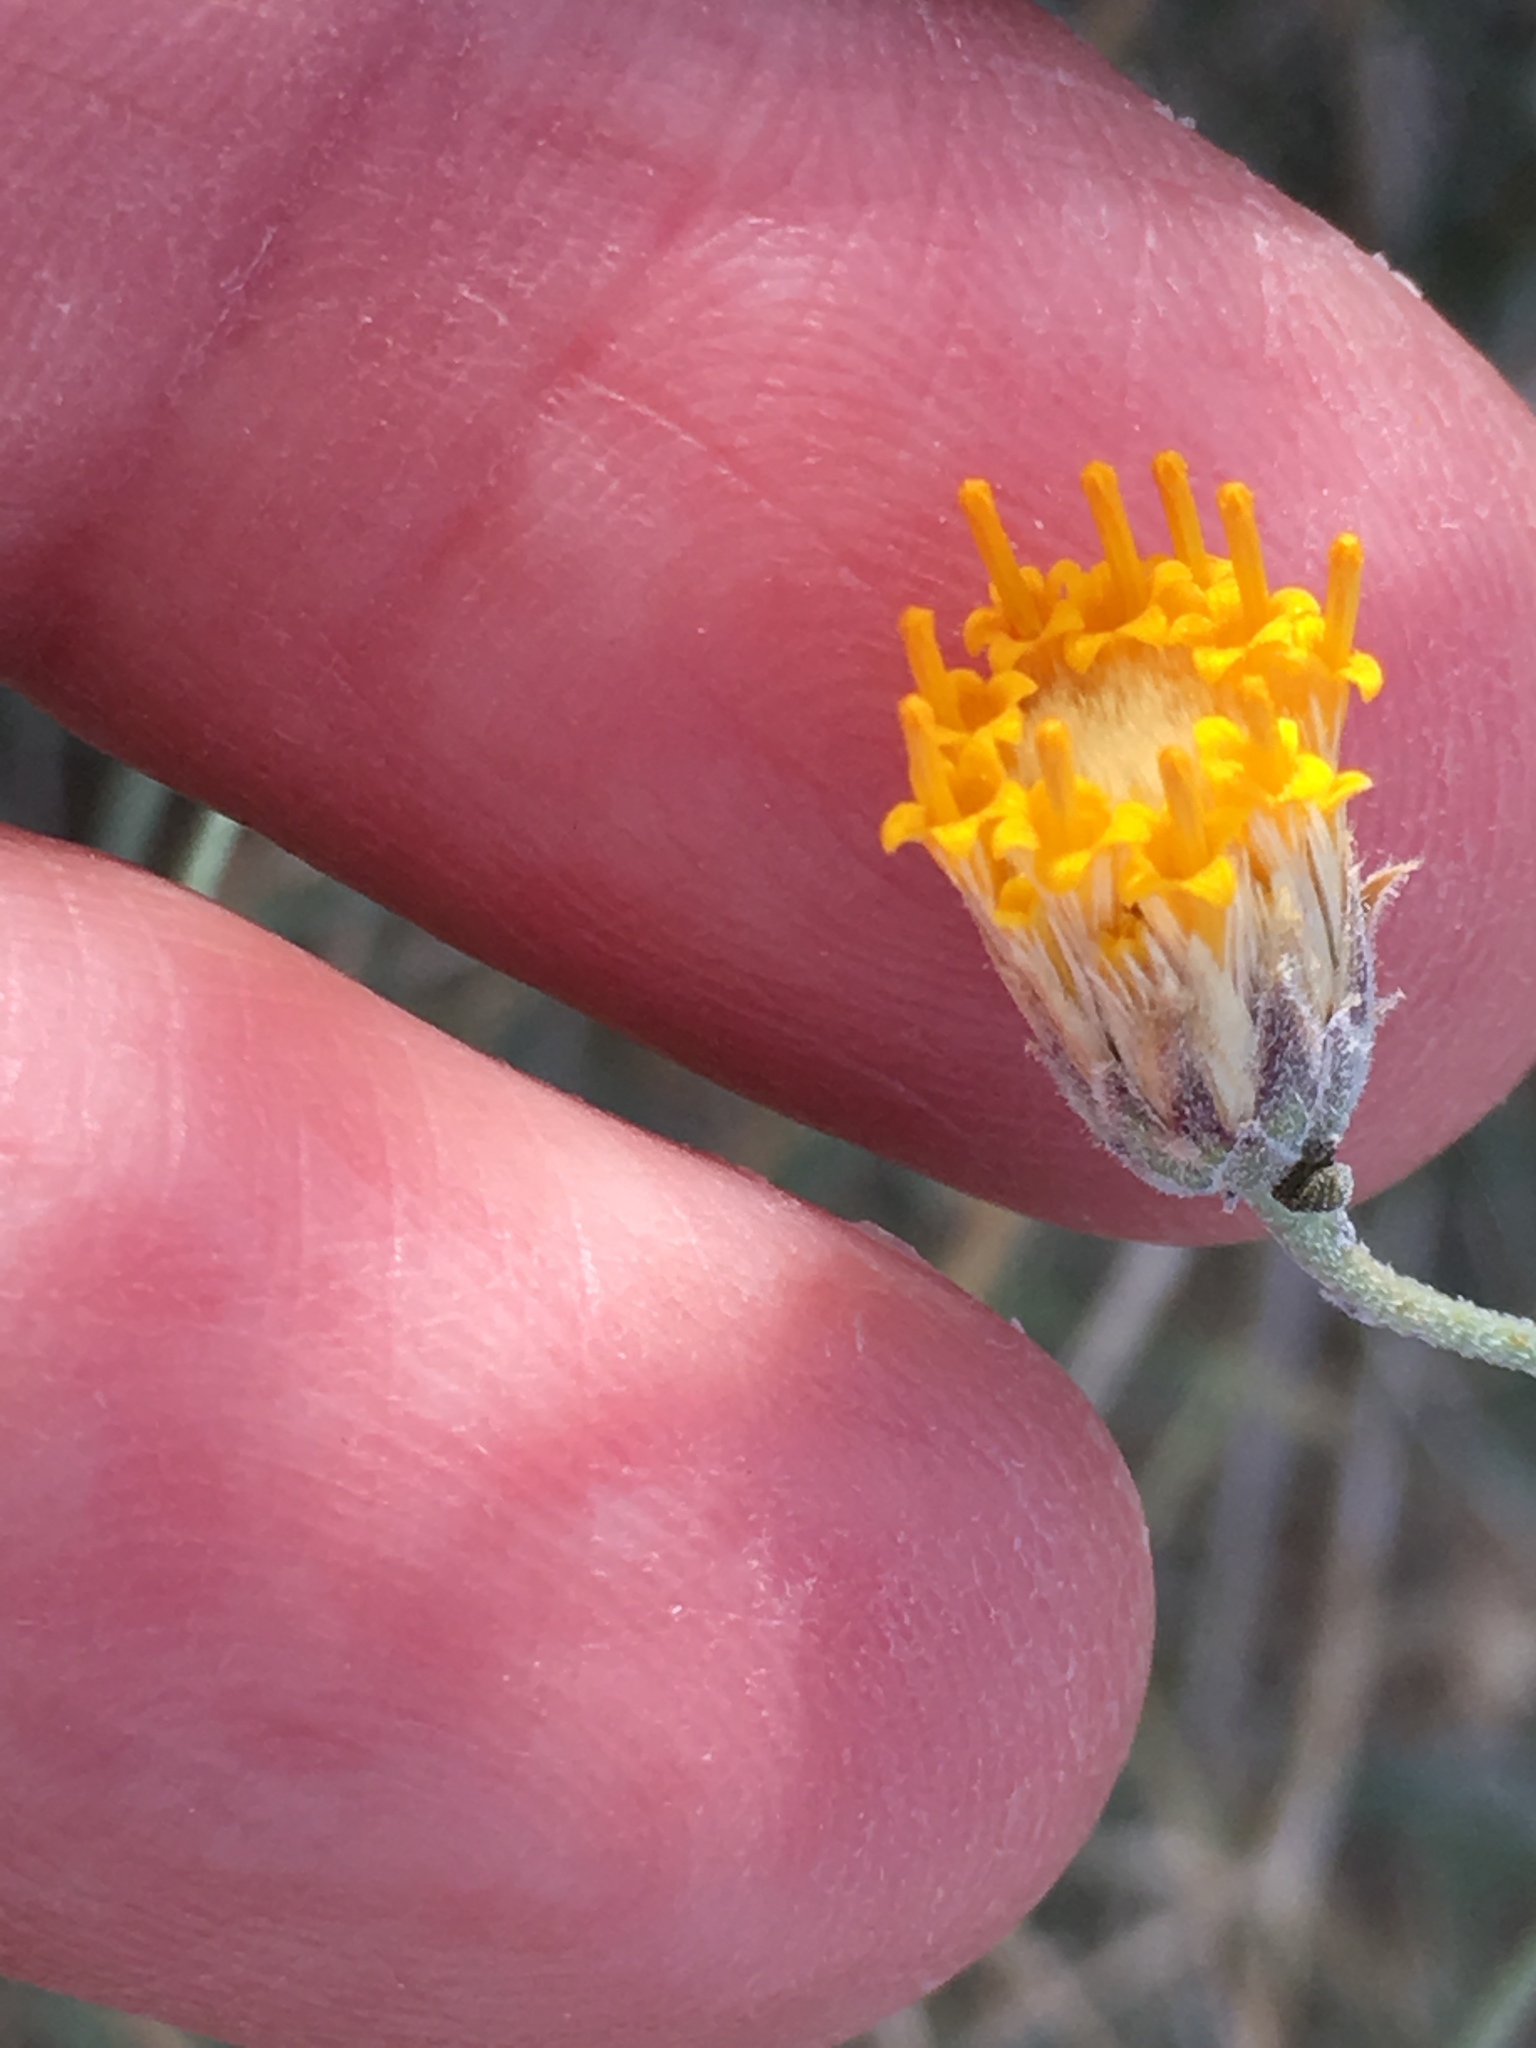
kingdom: Plantae
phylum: Tracheophyta
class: Magnoliopsida
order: Asterales
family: Asteraceae
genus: Bebbia
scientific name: Bebbia juncea
